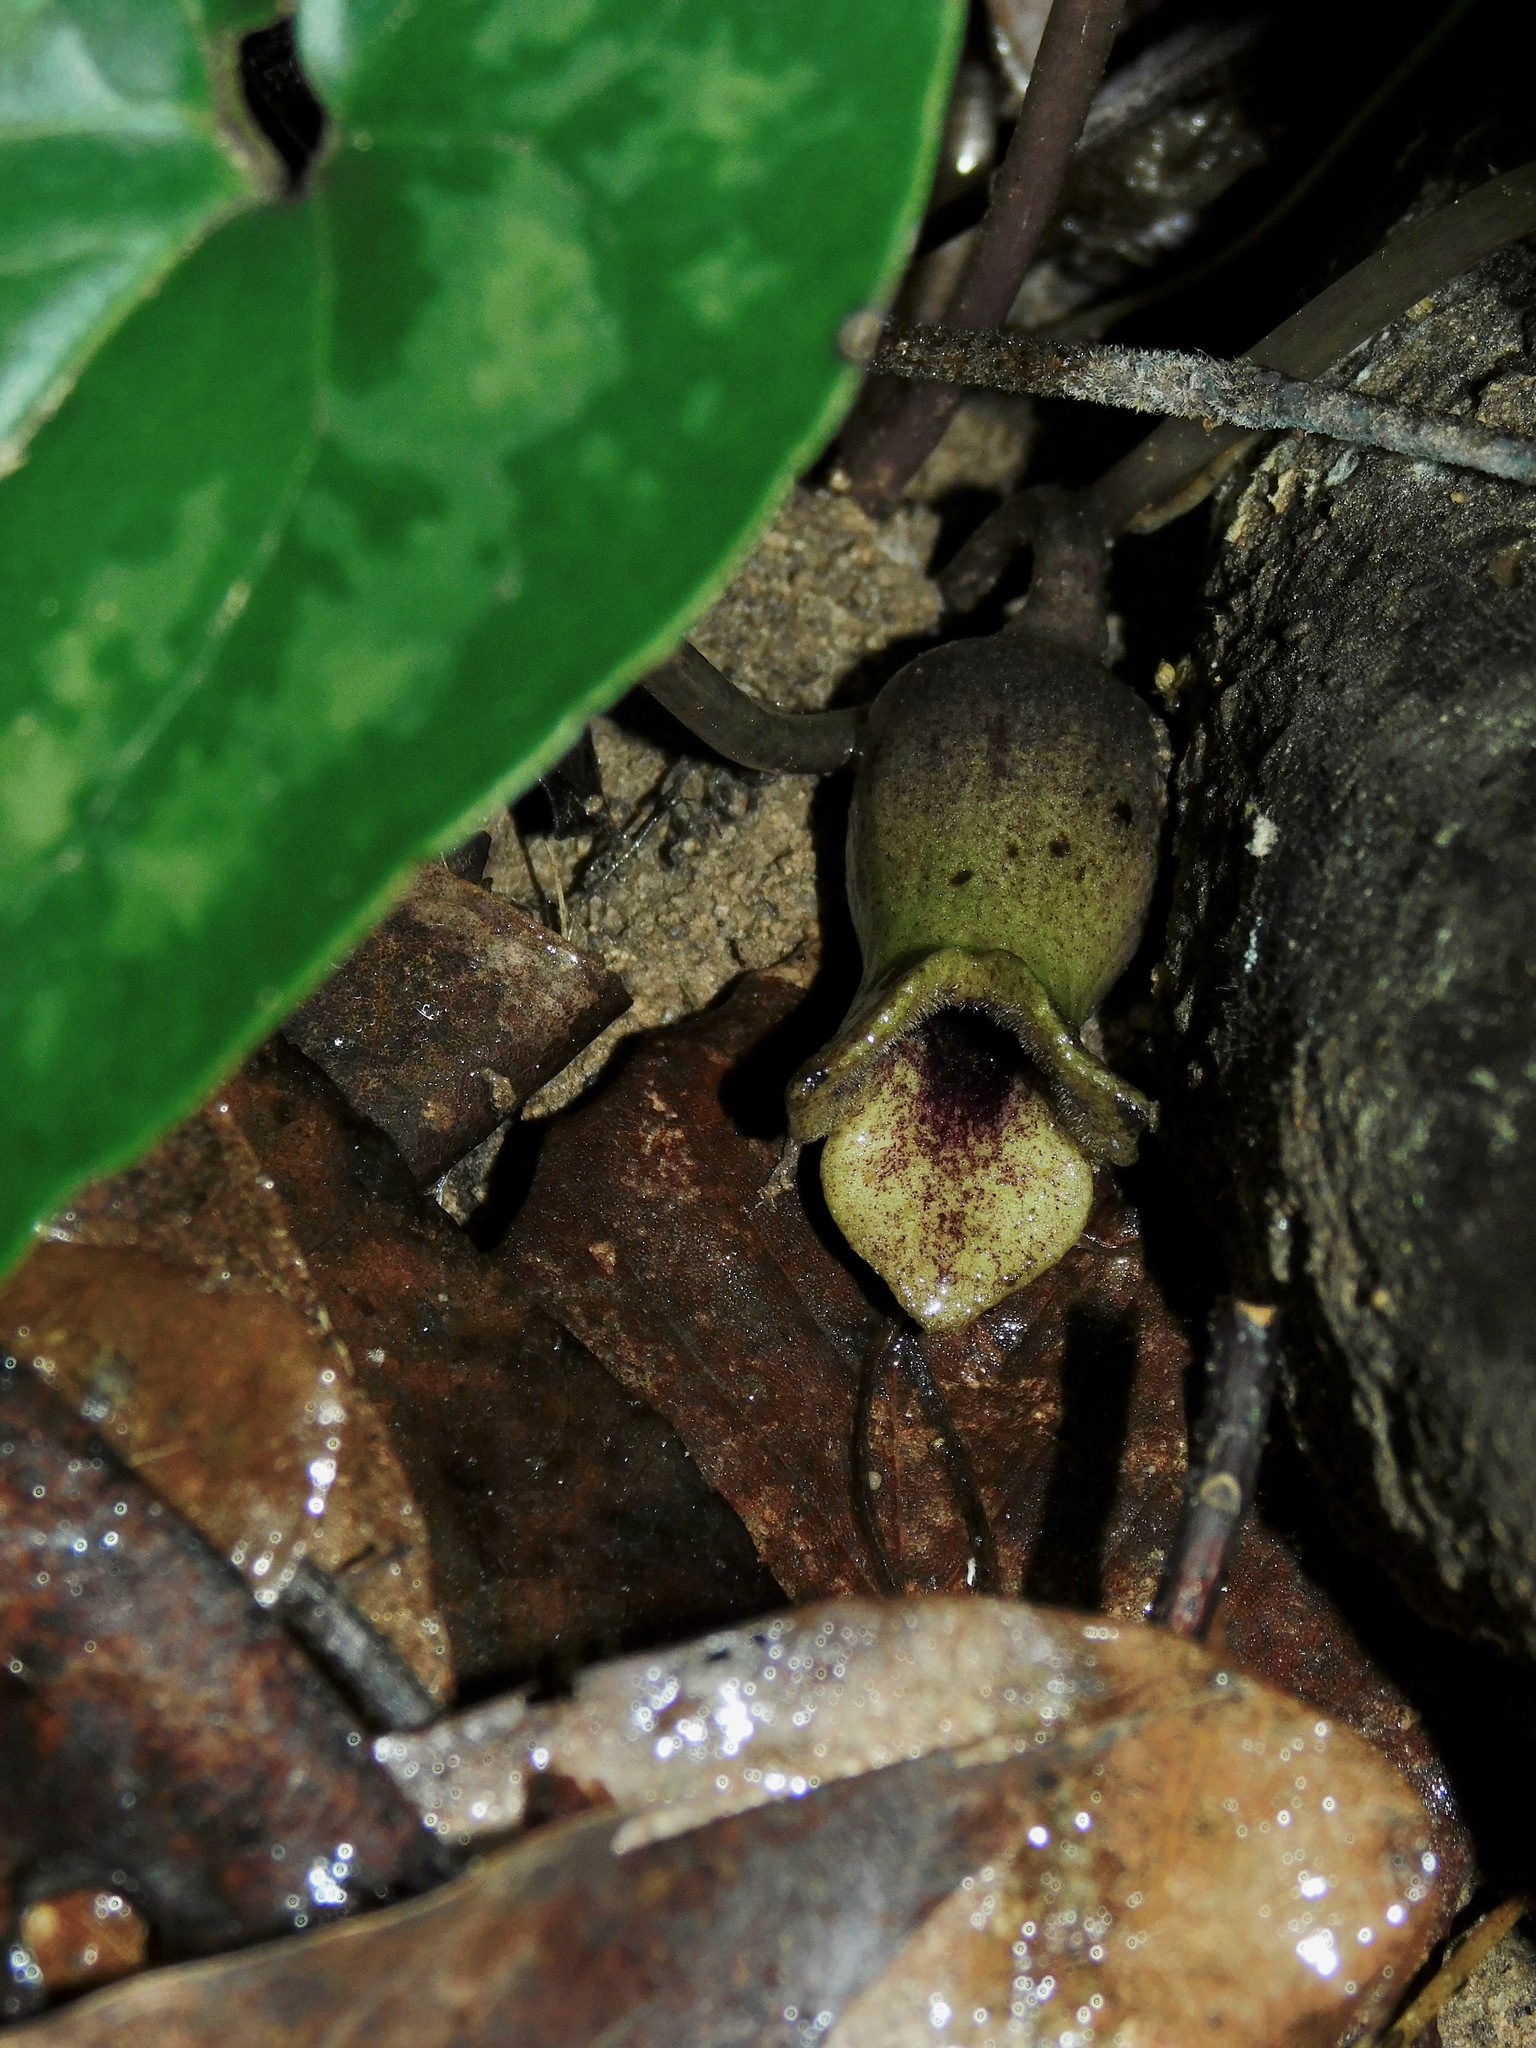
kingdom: Plantae
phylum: Tracheophyta
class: Magnoliopsida
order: Piperales
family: Aristolochiaceae
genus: Hexastylis
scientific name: Hexastylis arifolia
